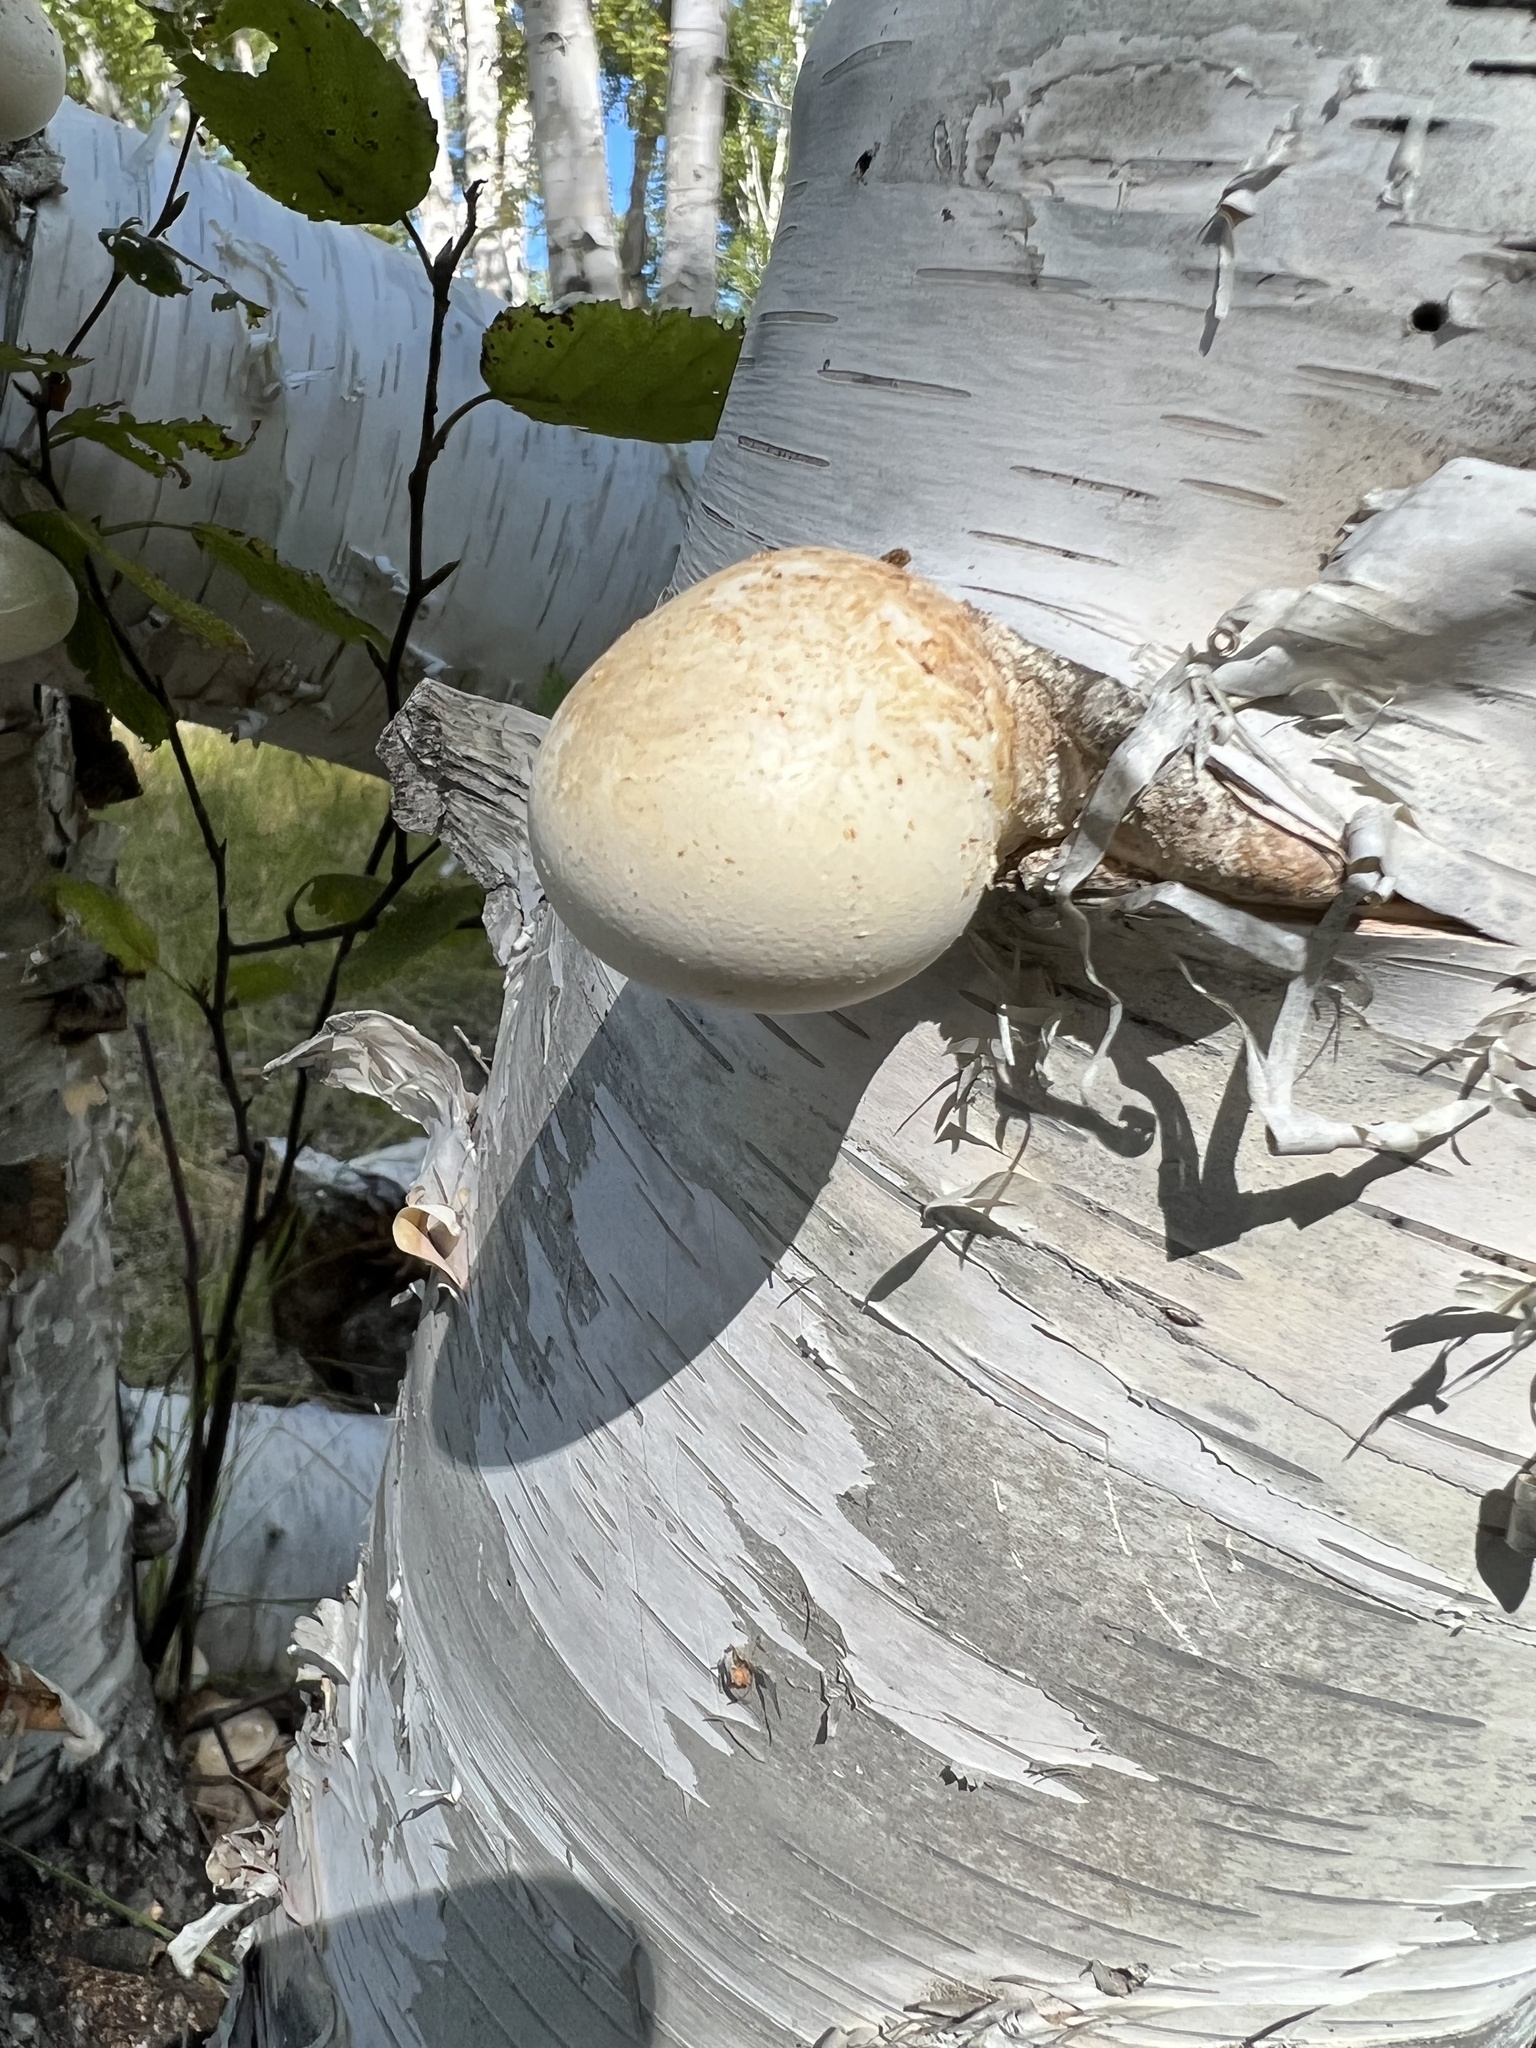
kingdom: Fungi
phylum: Basidiomycota
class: Agaricomycetes
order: Polyporales
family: Fomitopsidaceae
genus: Fomitopsis
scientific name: Fomitopsis betulina
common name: Birch polypore
